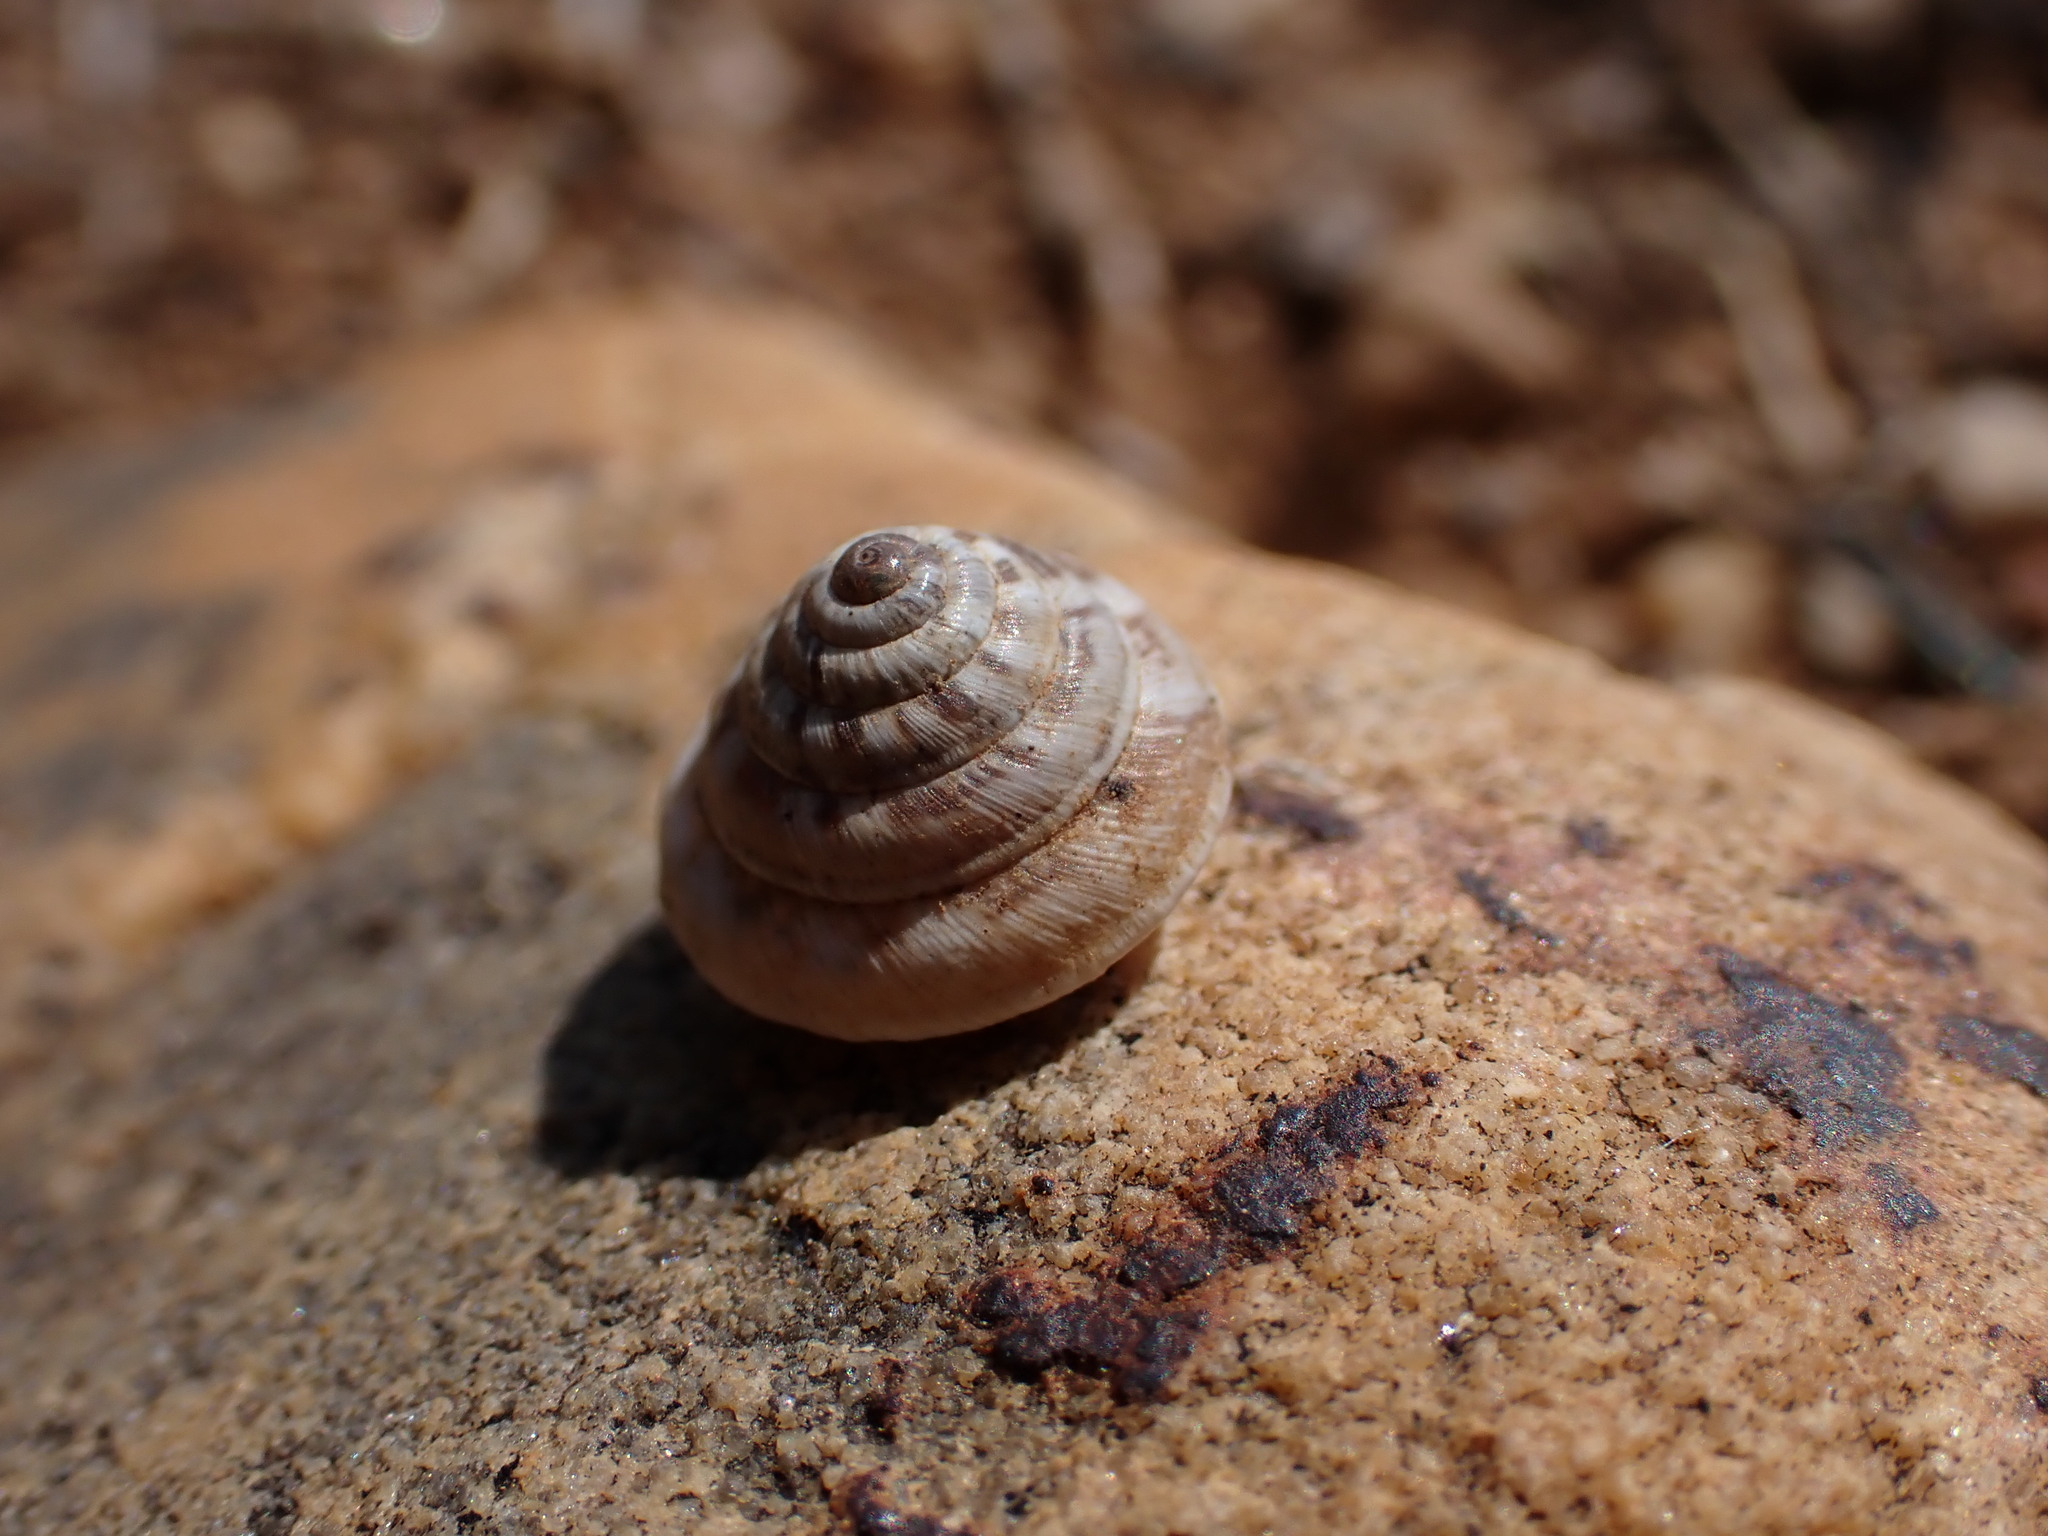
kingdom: Animalia
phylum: Mollusca
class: Gastropoda
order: Stylommatophora
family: Geomitridae
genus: Trochoidea
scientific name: Trochoidea trochoides
